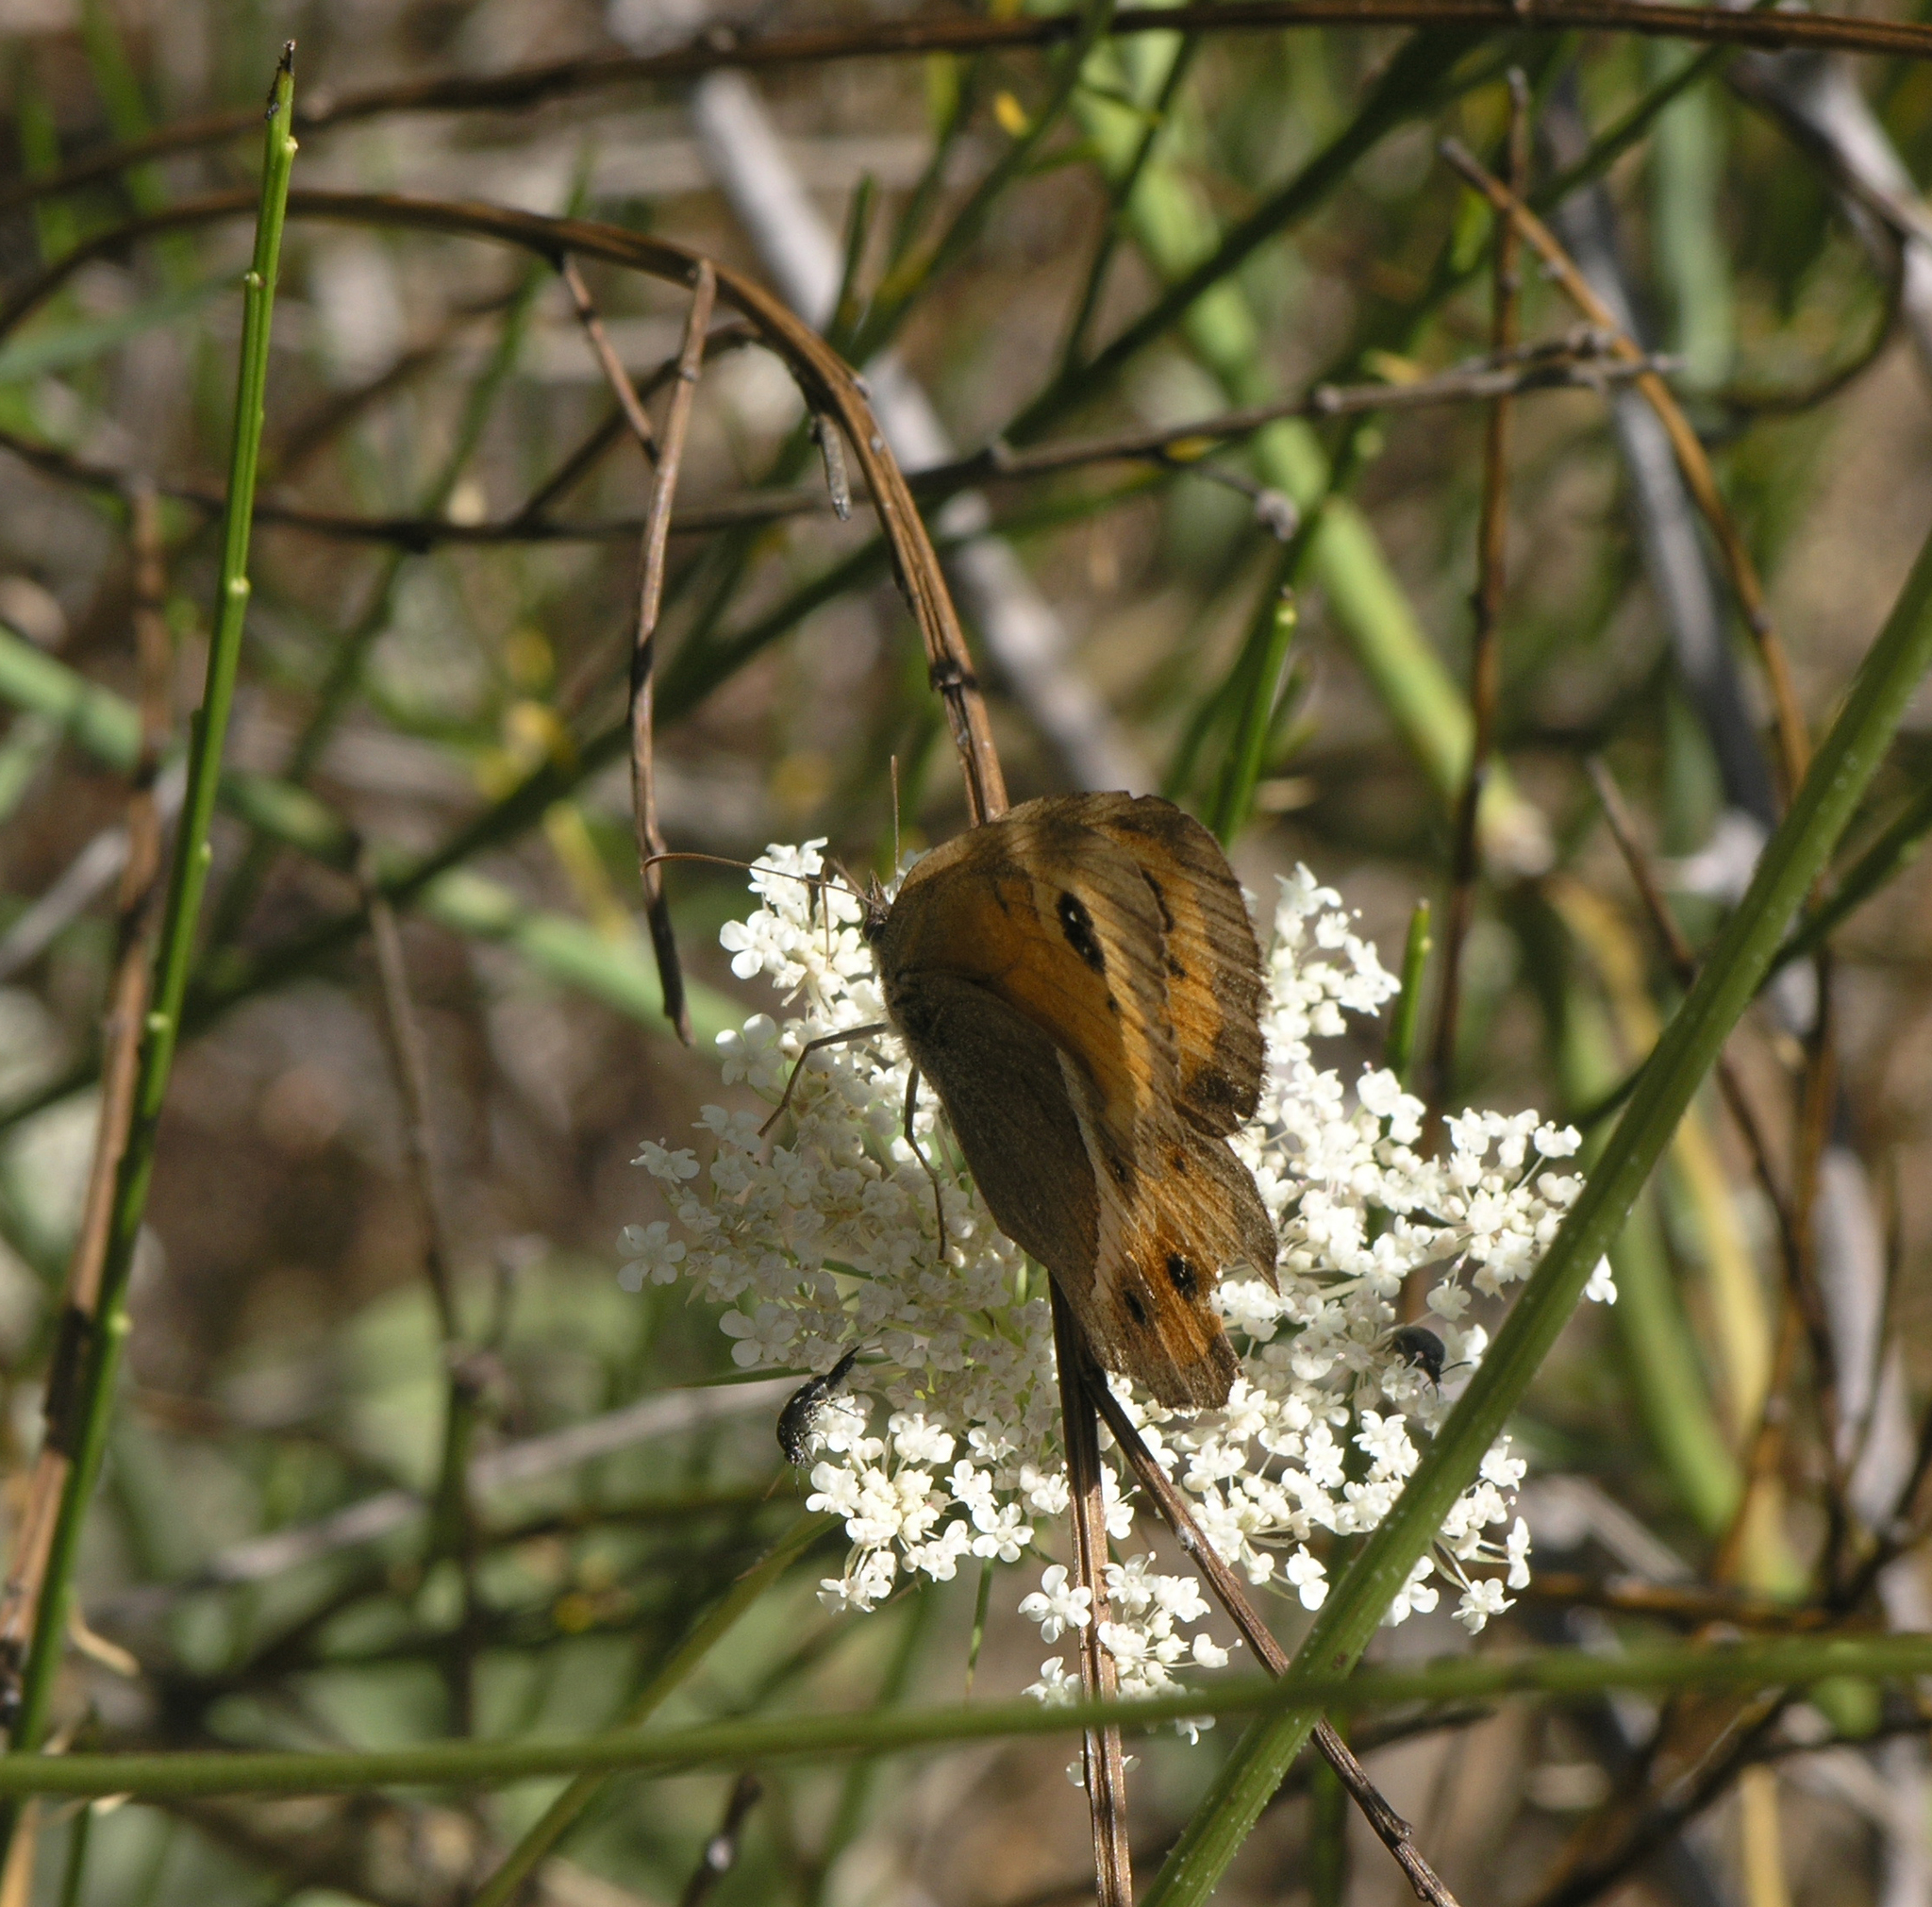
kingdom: Animalia
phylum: Arthropoda
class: Insecta
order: Lepidoptera
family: Nymphalidae
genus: Pyronia
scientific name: Pyronia bathseba
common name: Spanish gatekeeper
